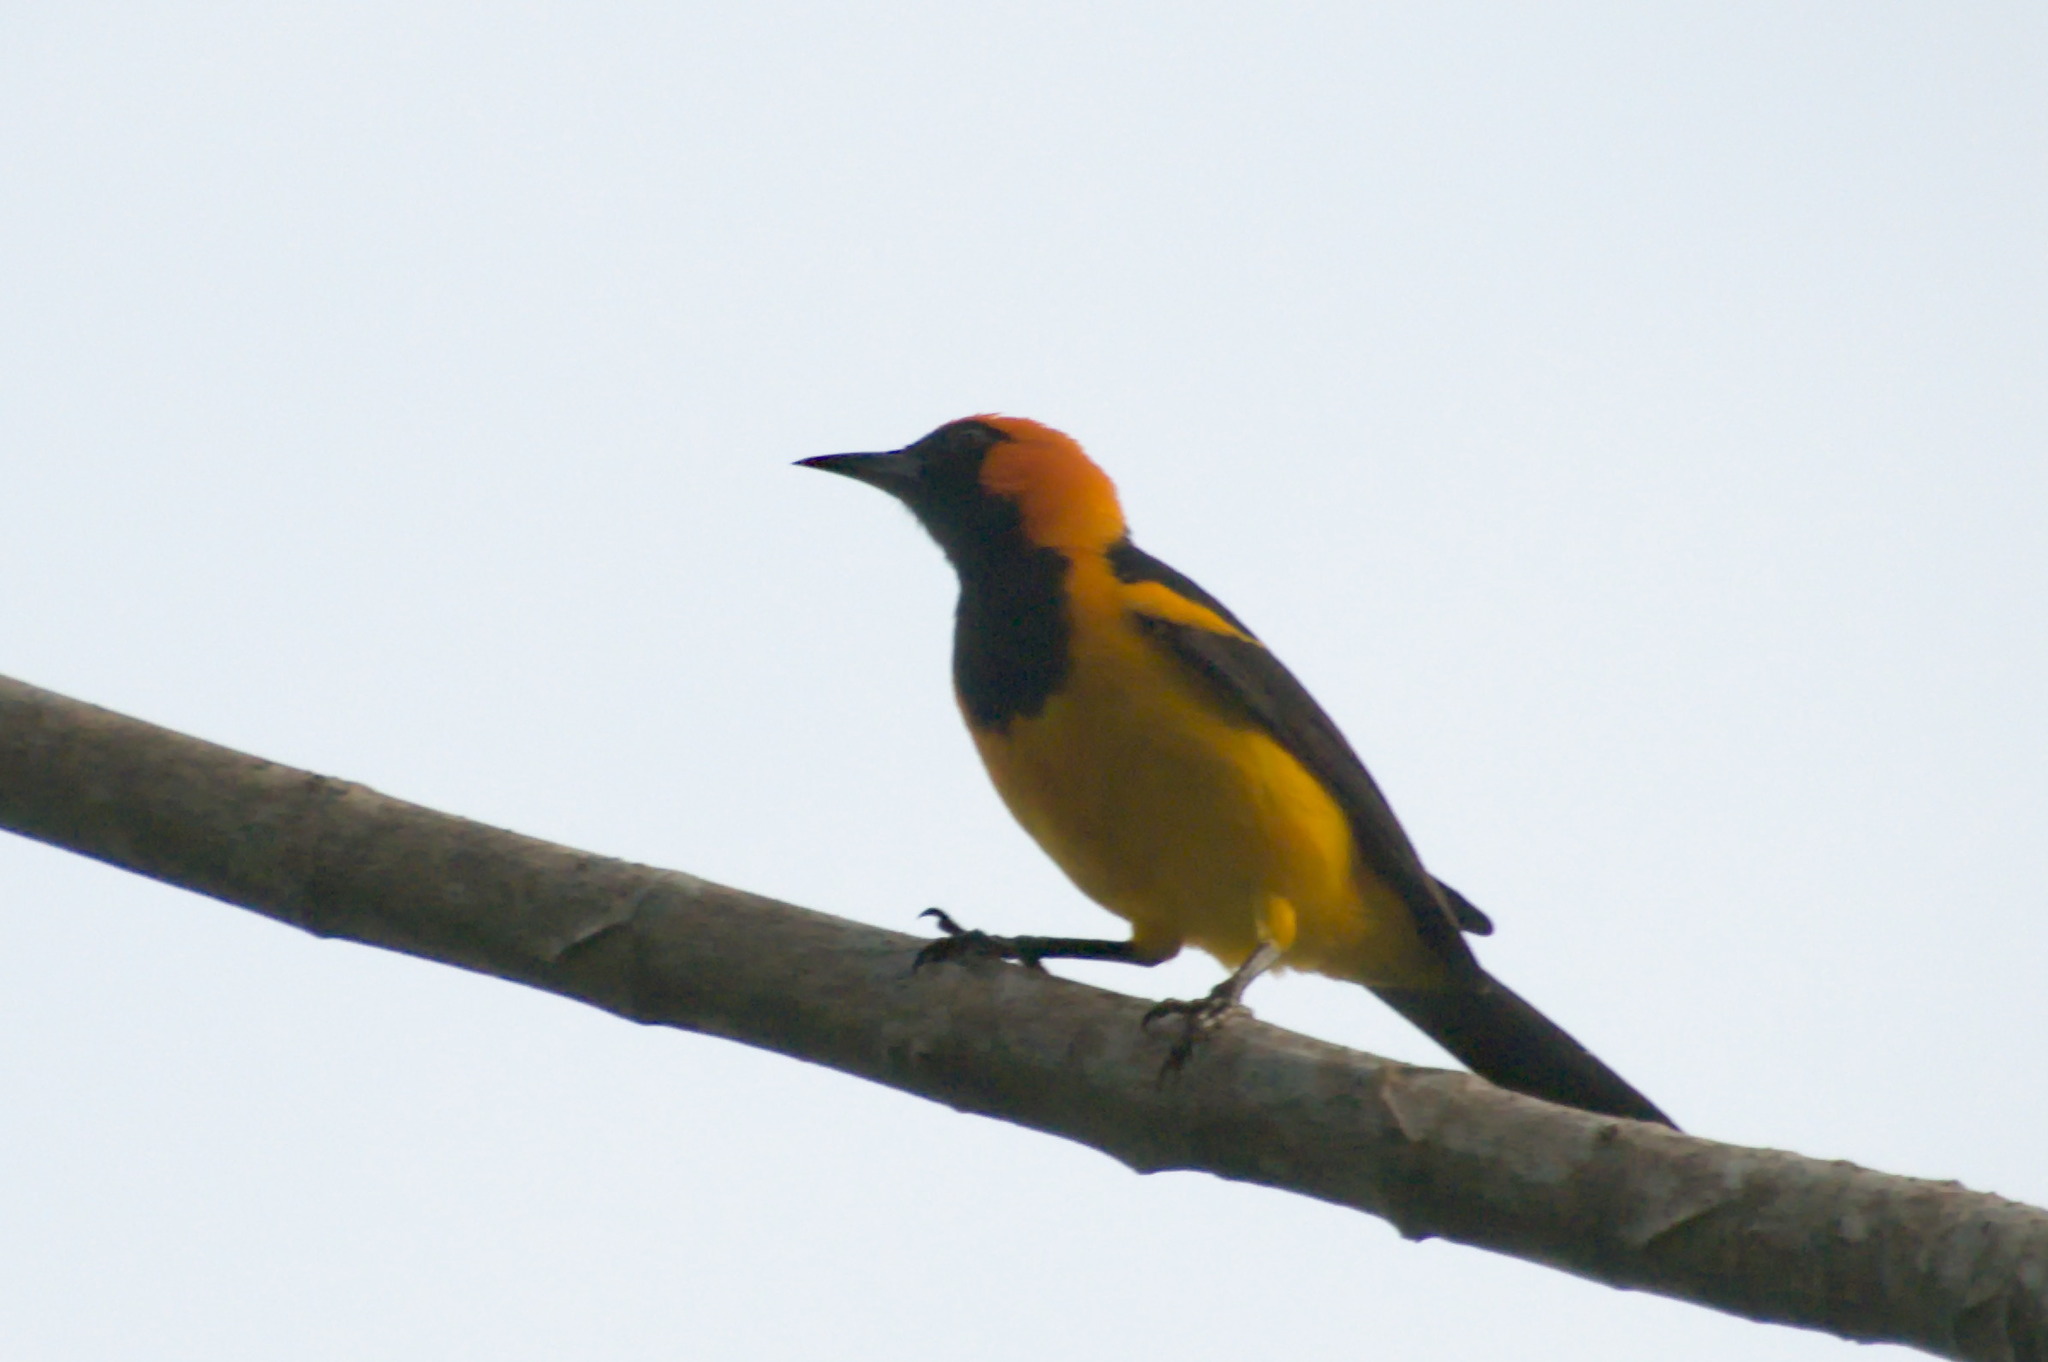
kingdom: Animalia
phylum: Chordata
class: Aves
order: Passeriformes
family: Icteridae
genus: Icterus
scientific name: Icterus auricapillus
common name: Orange-crowned oriole
